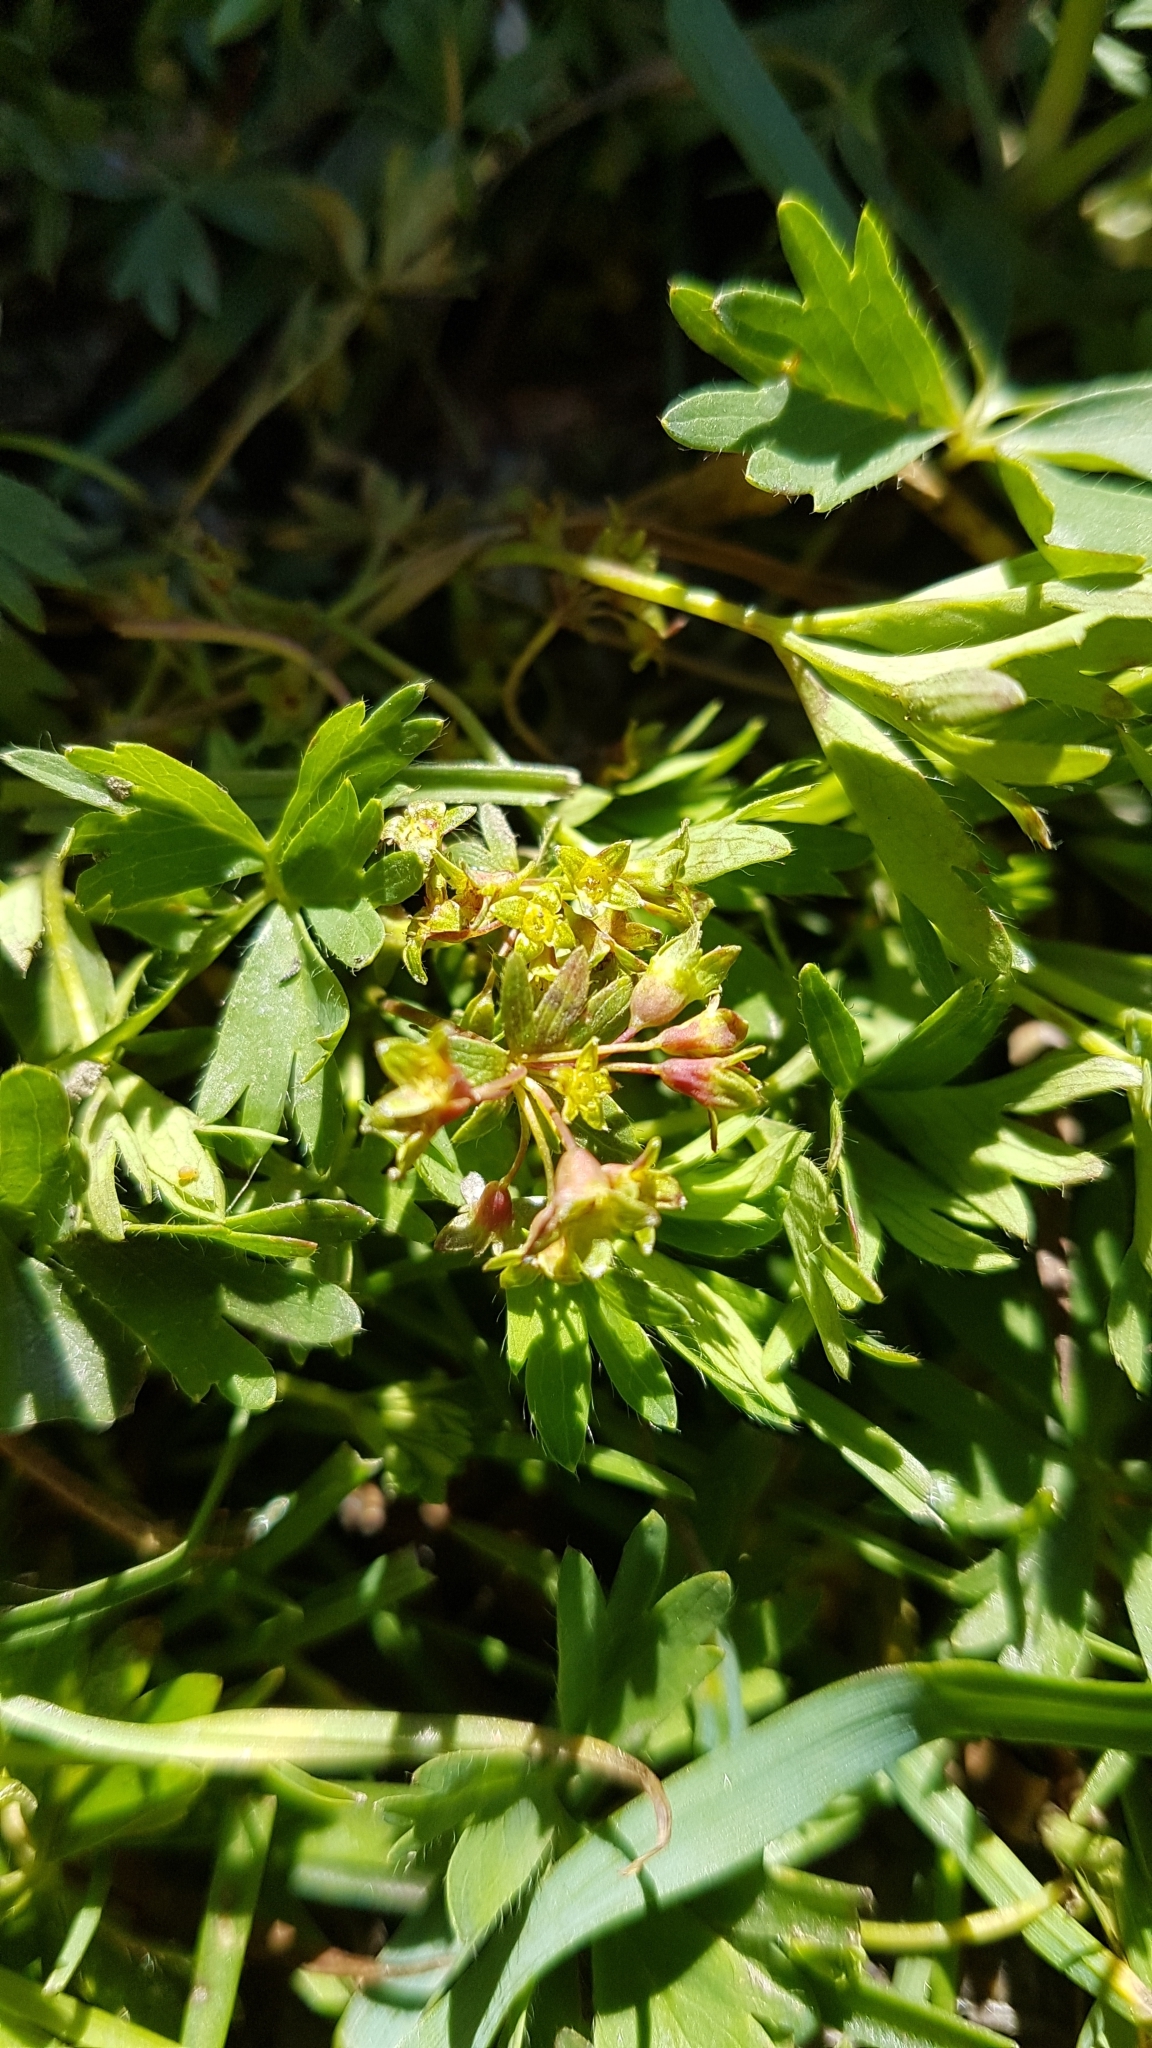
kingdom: Plantae
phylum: Tracheophyta
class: Magnoliopsida
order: Rosales
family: Rosaceae
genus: Alchemilla
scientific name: Alchemilla pentaphyllea
